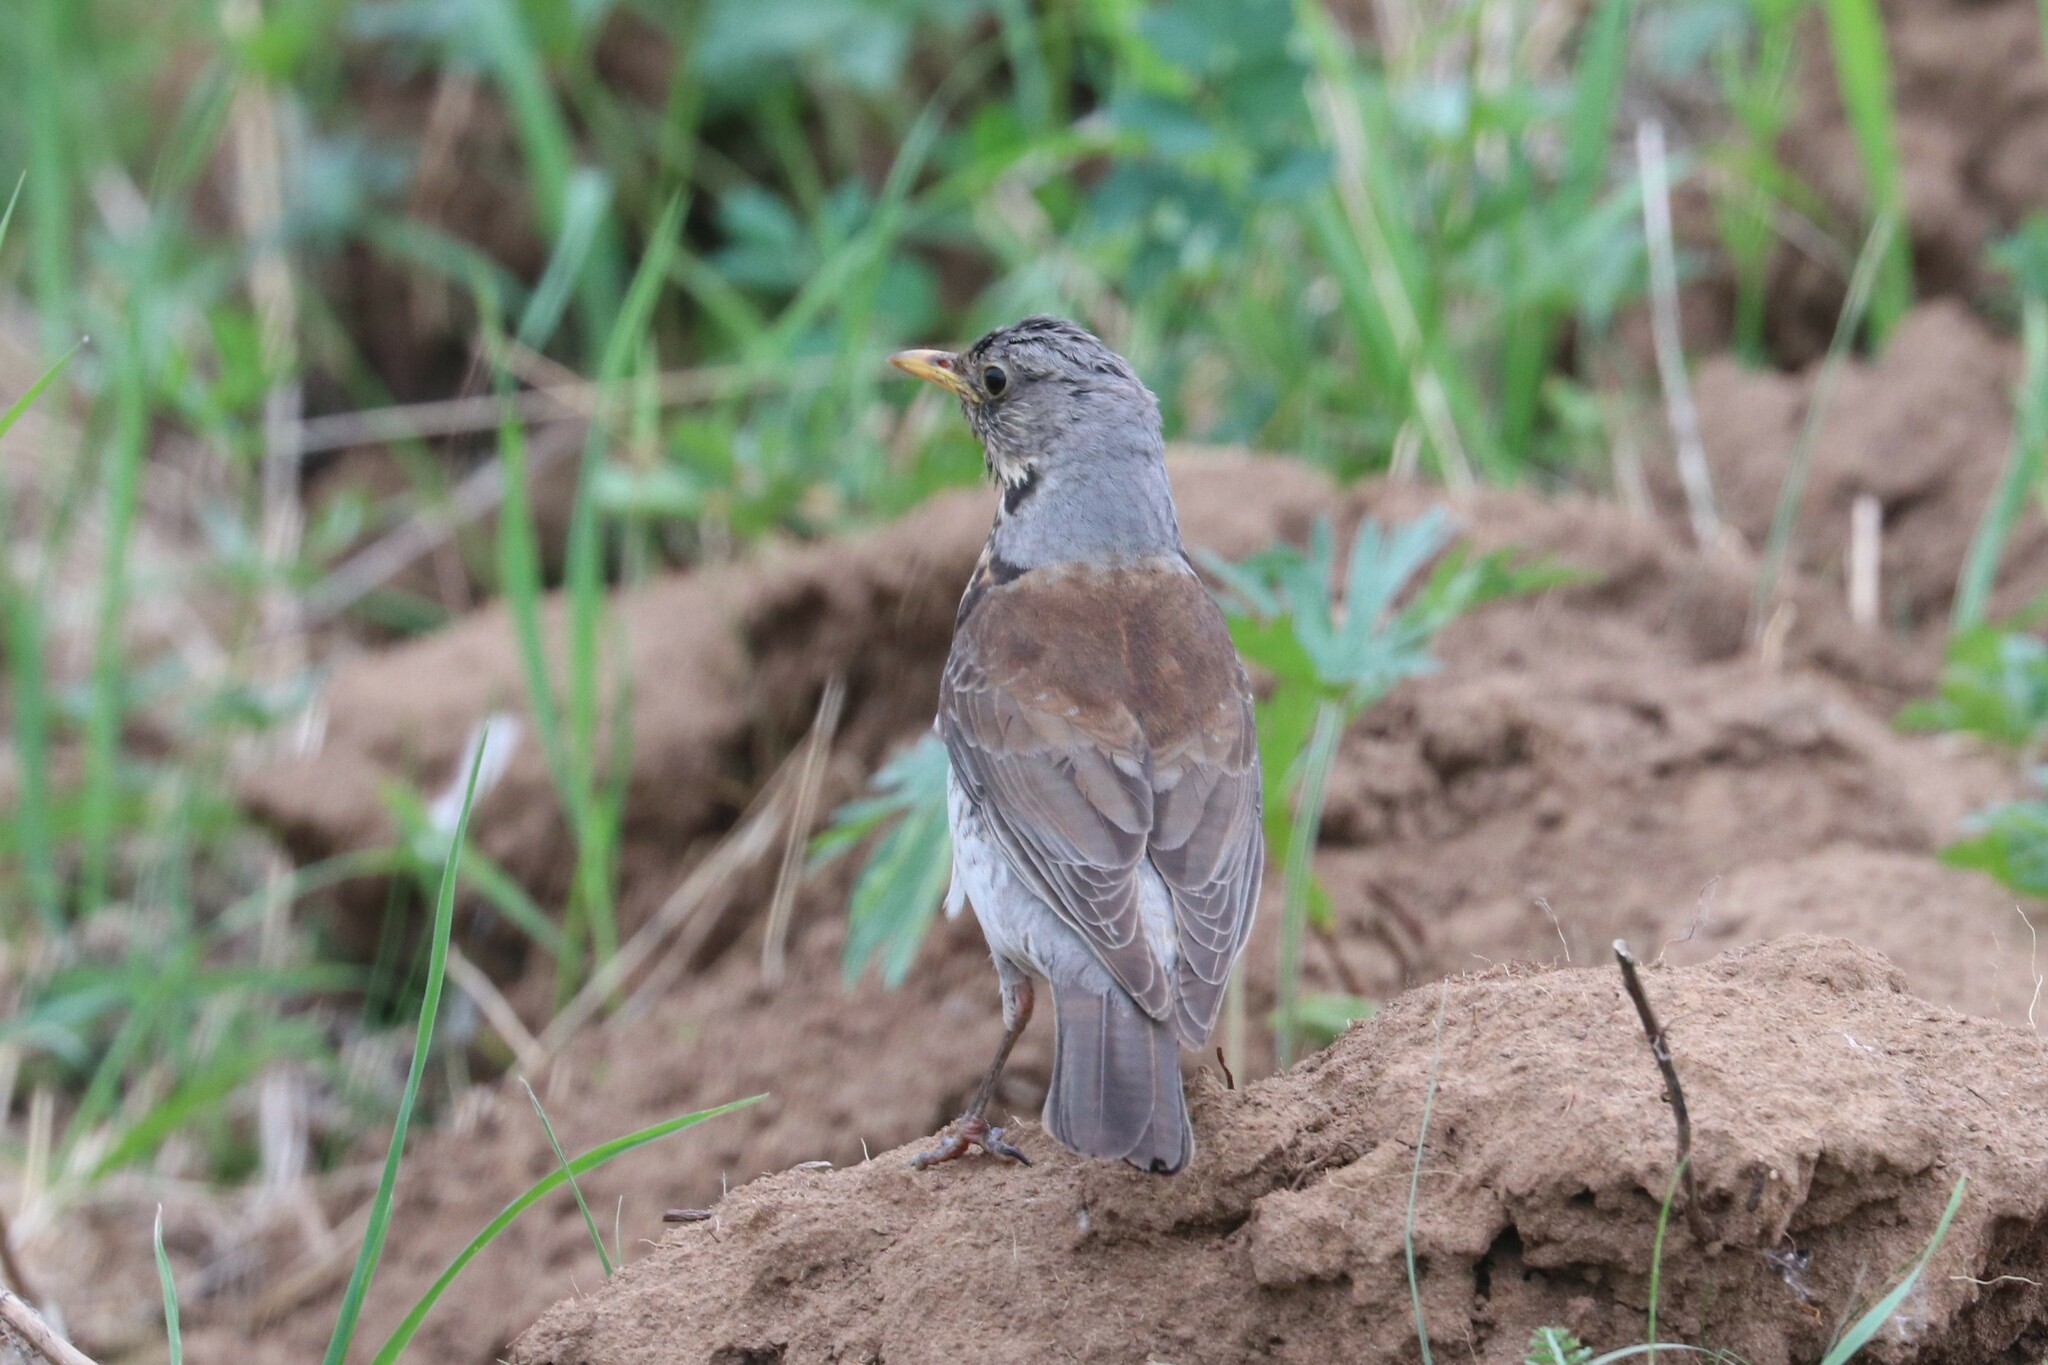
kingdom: Animalia
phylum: Chordata
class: Aves
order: Passeriformes
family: Turdidae
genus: Turdus
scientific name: Turdus pilaris
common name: Fieldfare
